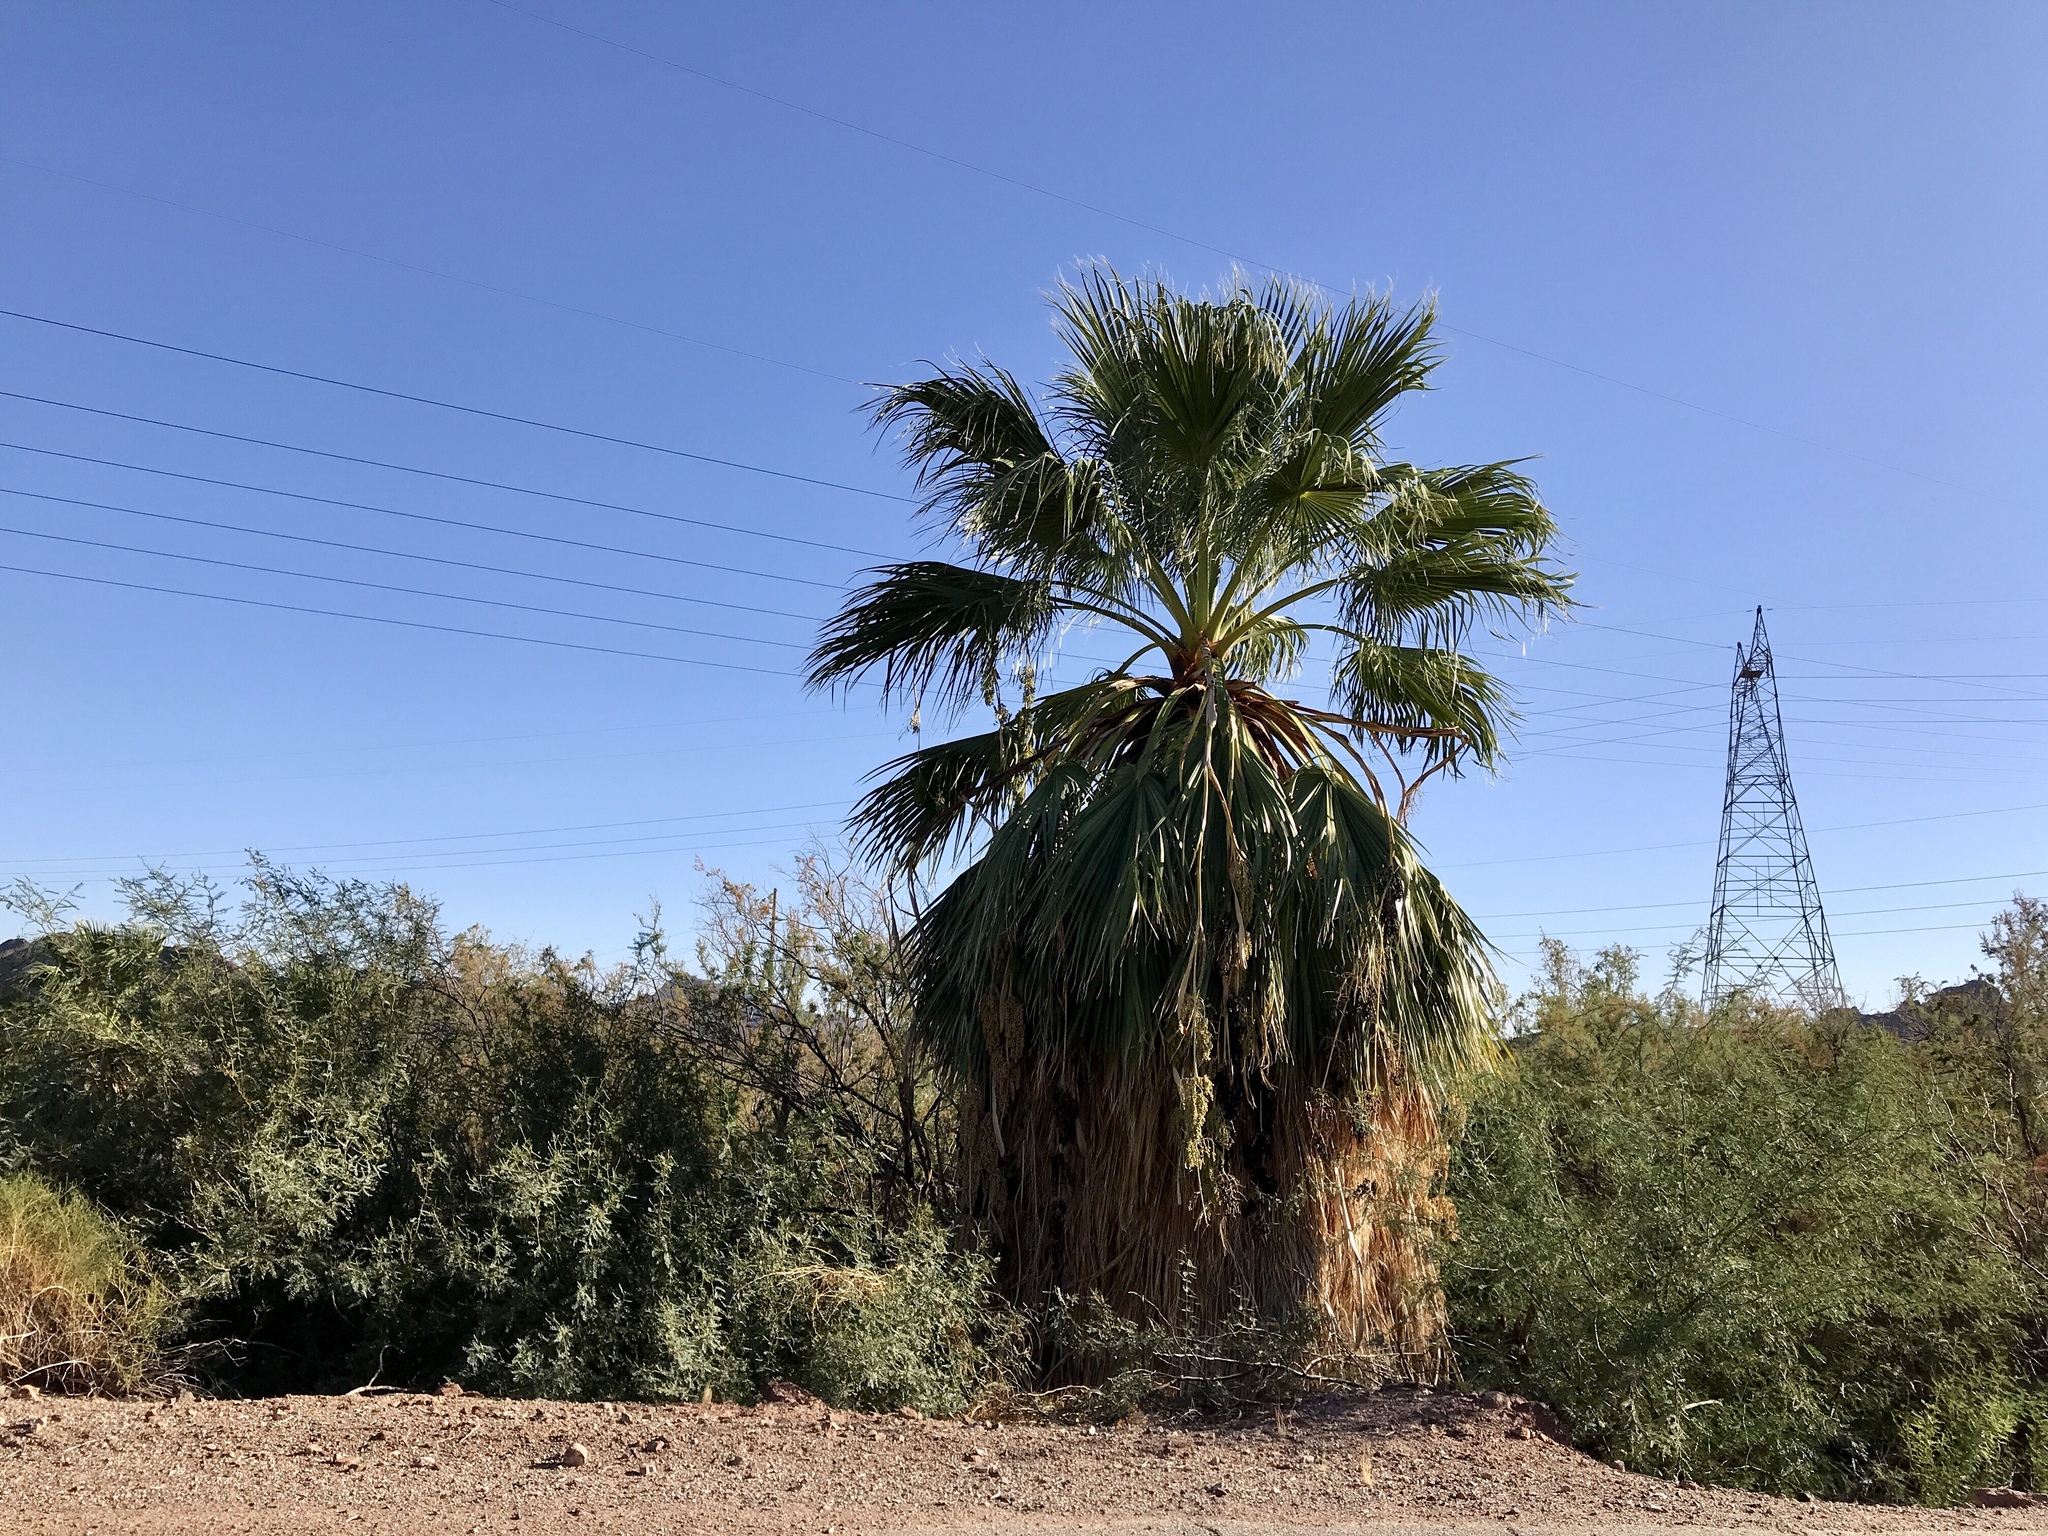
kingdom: Plantae
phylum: Tracheophyta
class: Liliopsida
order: Arecales
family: Arecaceae
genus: Washingtonia
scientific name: Washingtonia filifera
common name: California fan palm
